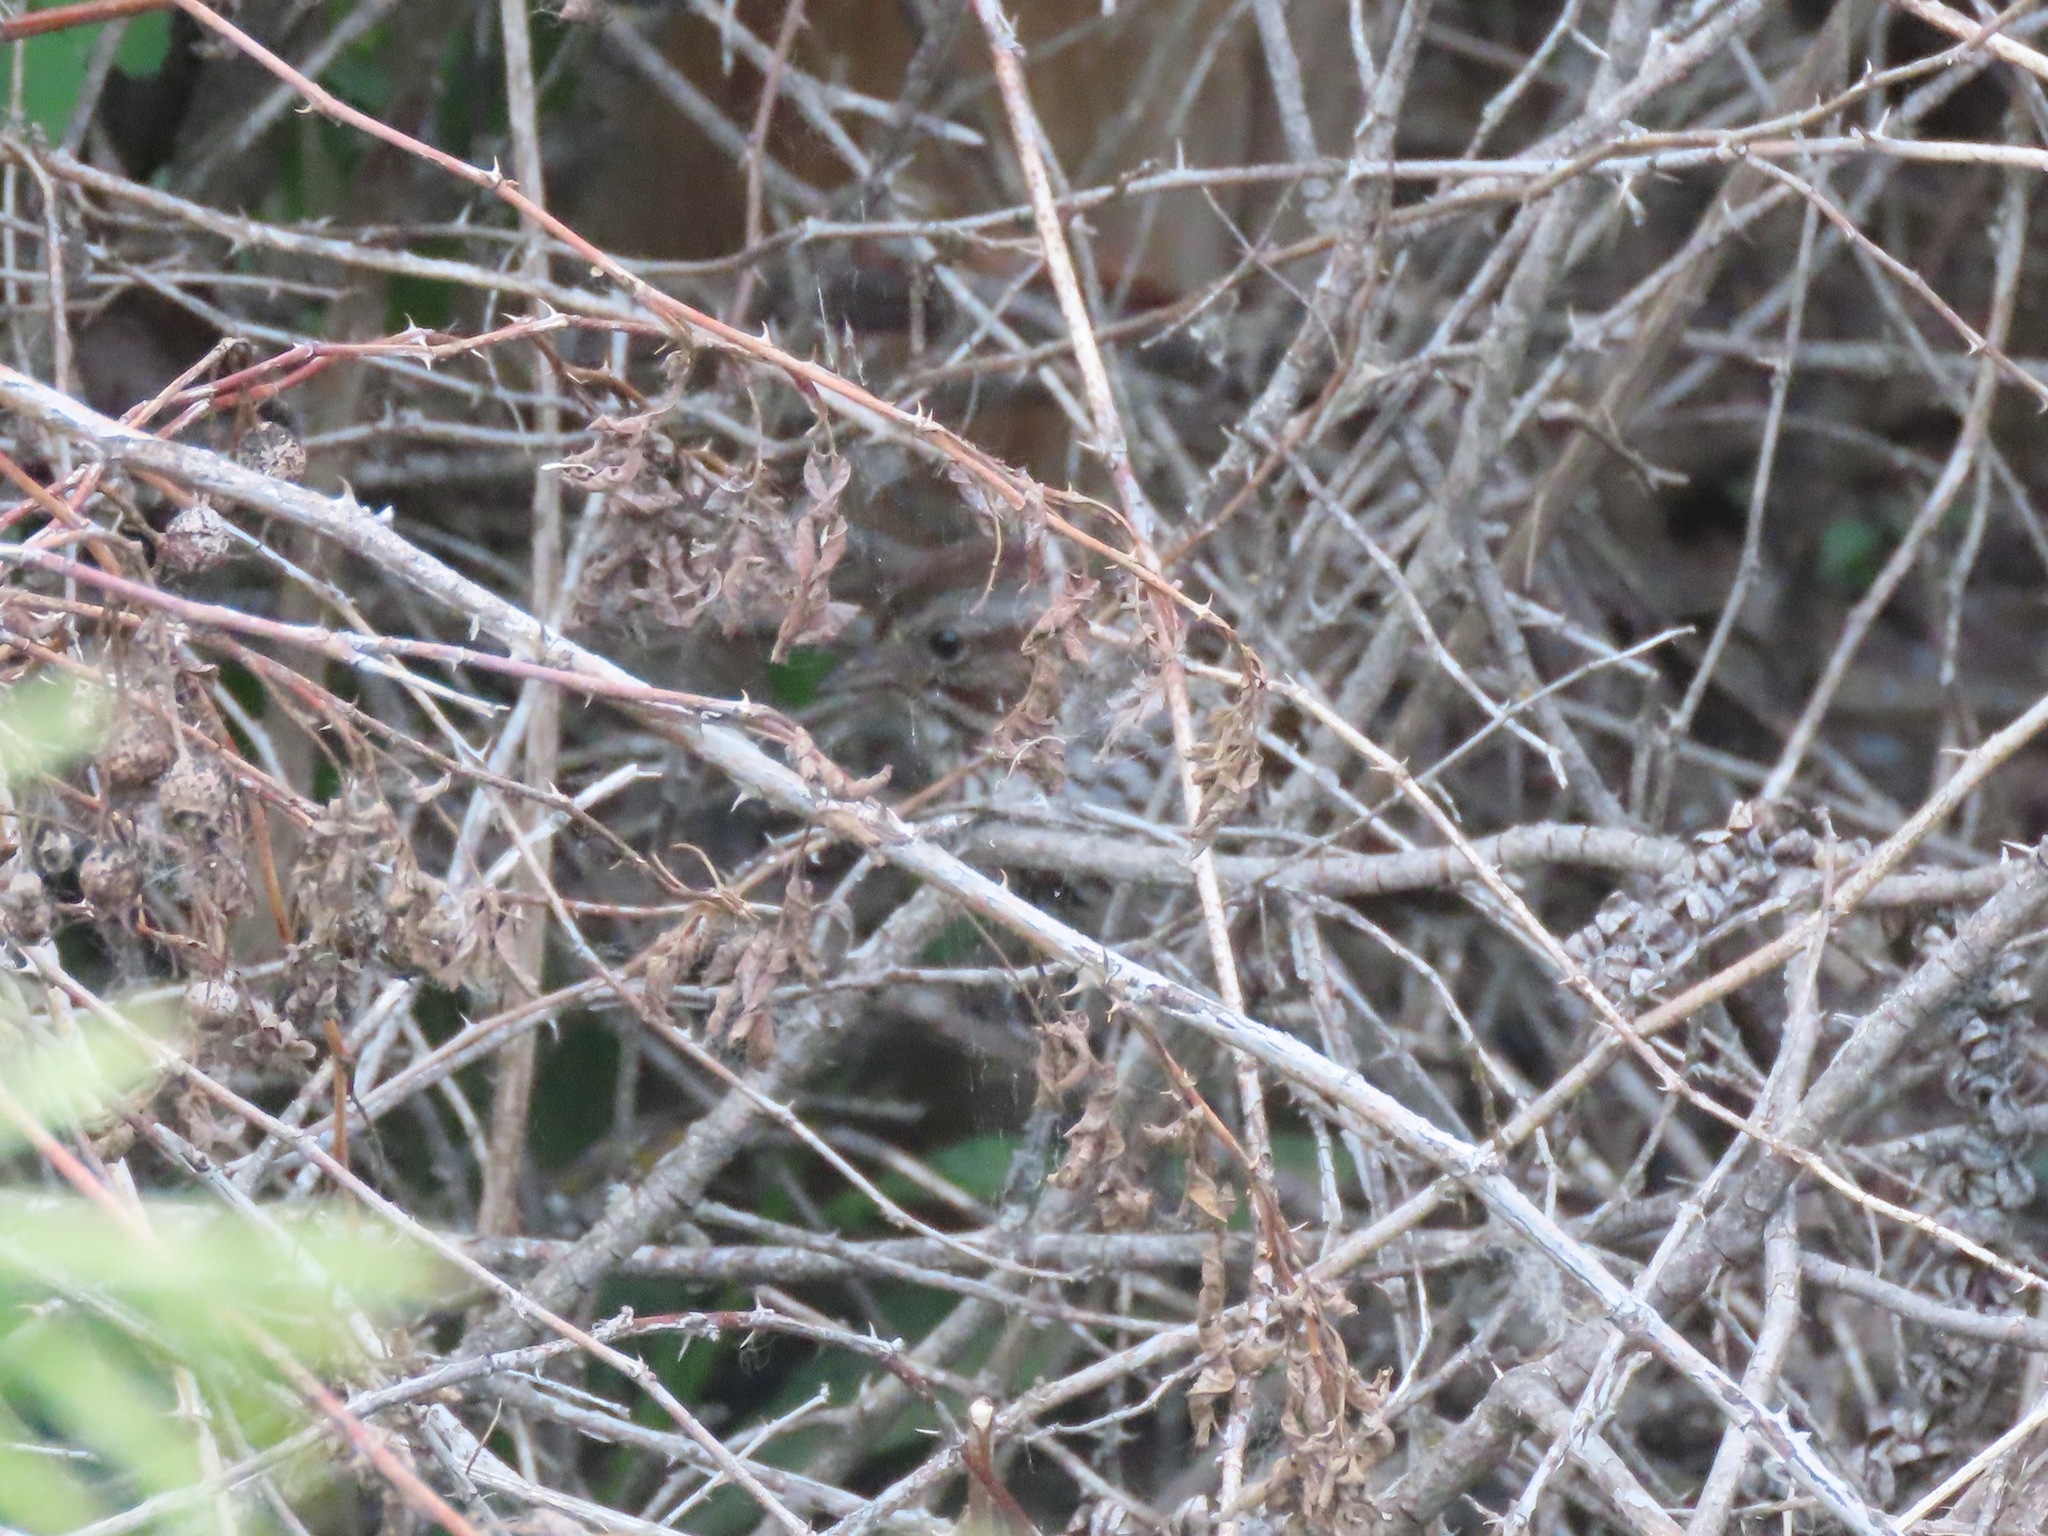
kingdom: Animalia
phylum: Chordata
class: Aves
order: Passeriformes
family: Passerellidae
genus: Melospiza
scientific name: Melospiza melodia
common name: Song sparrow
